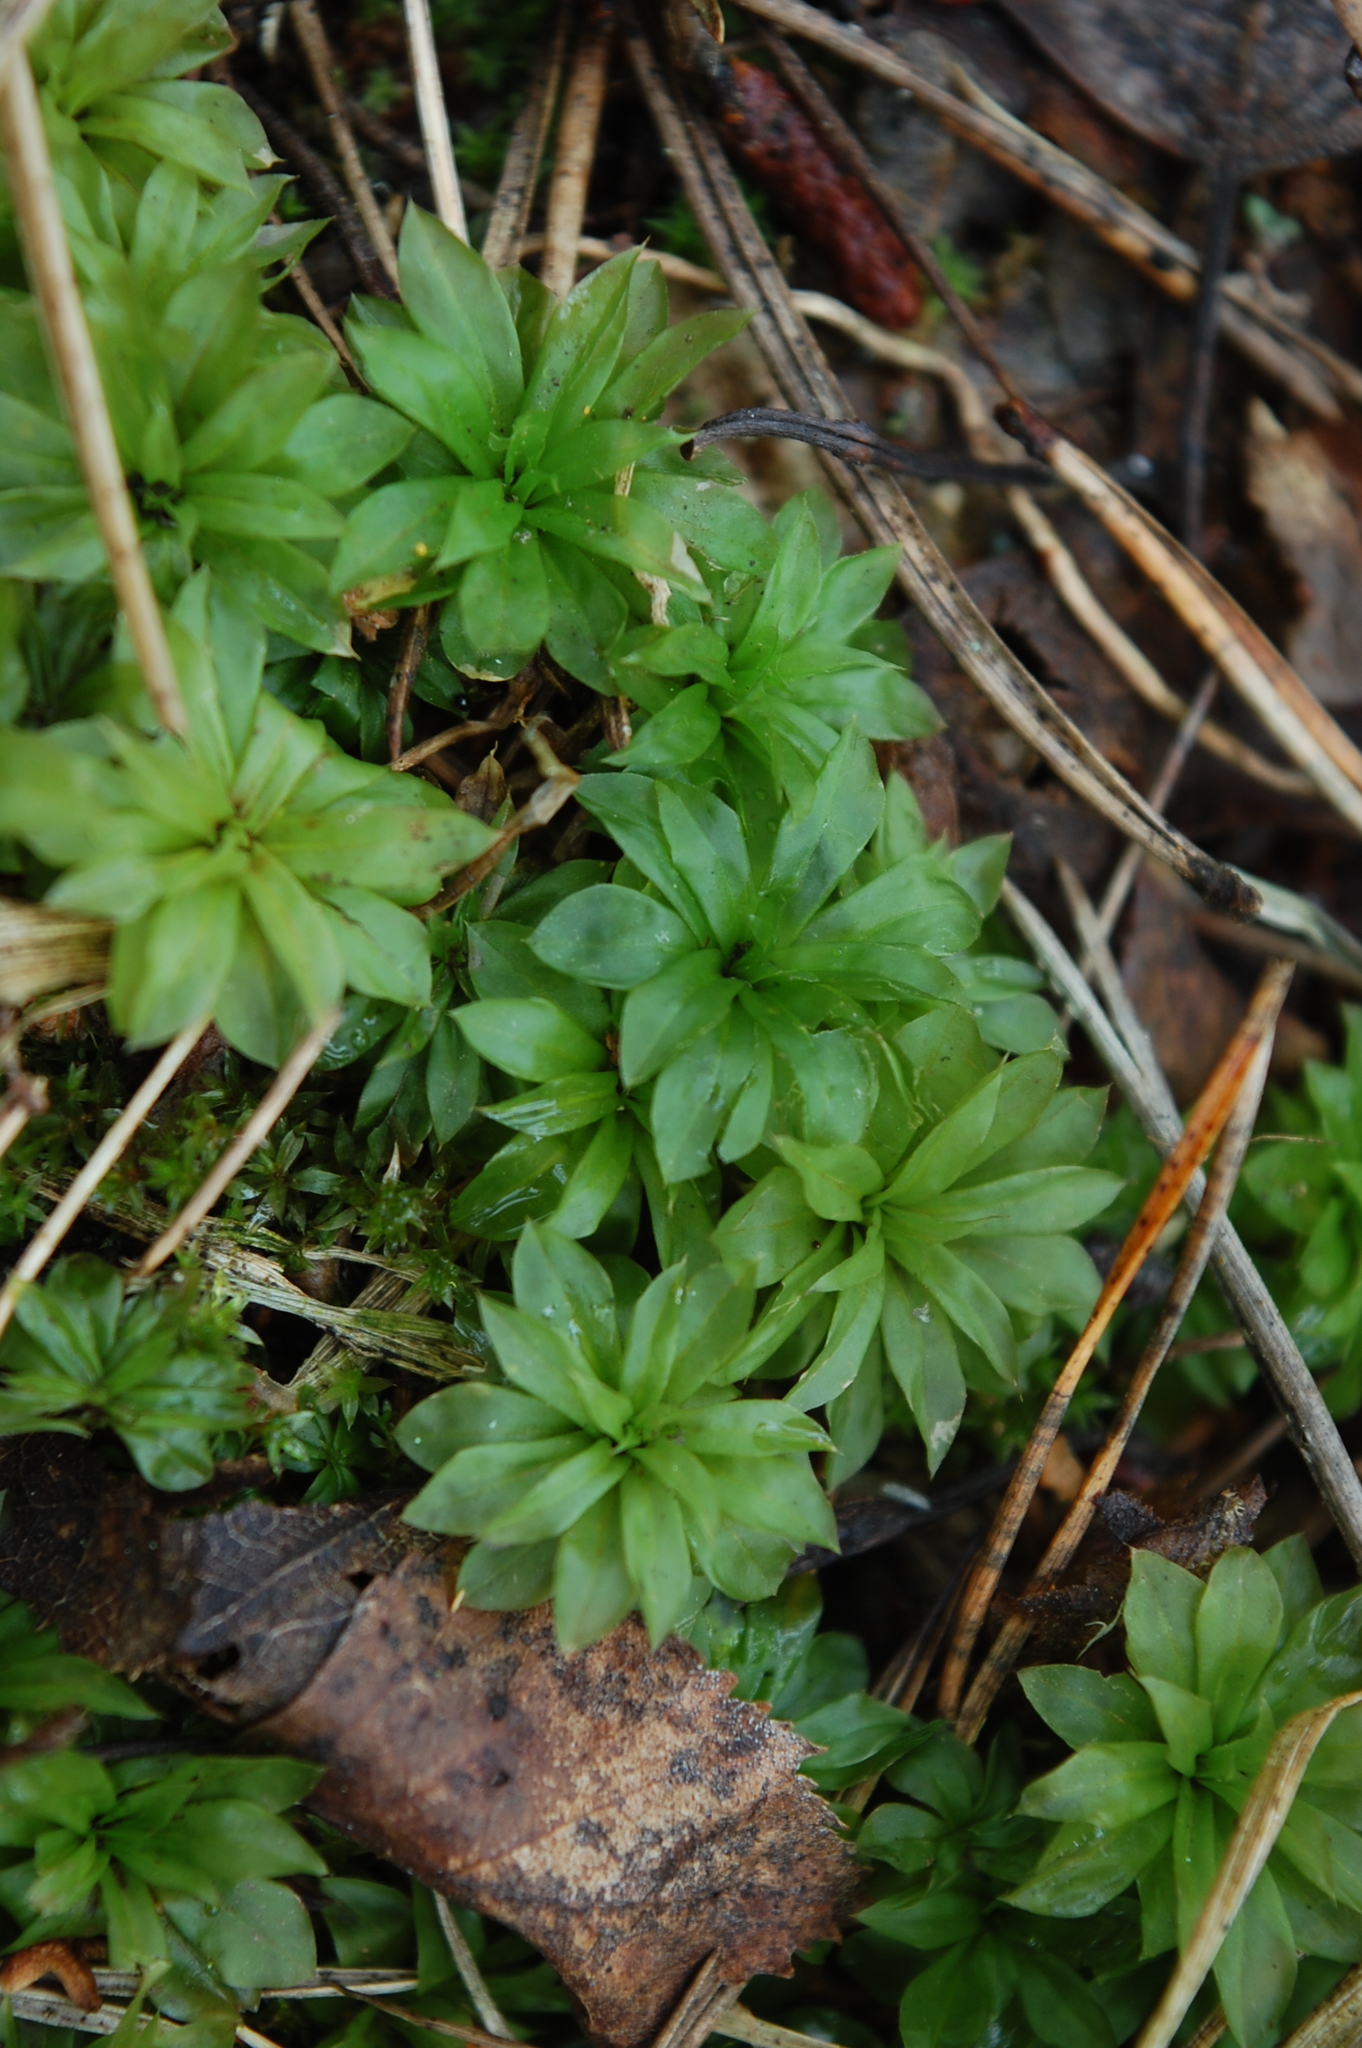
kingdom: Plantae
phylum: Bryophyta
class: Bryopsida
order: Bryales
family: Bryaceae
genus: Rhodobryum
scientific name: Rhodobryum roseum
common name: Rose-moss
